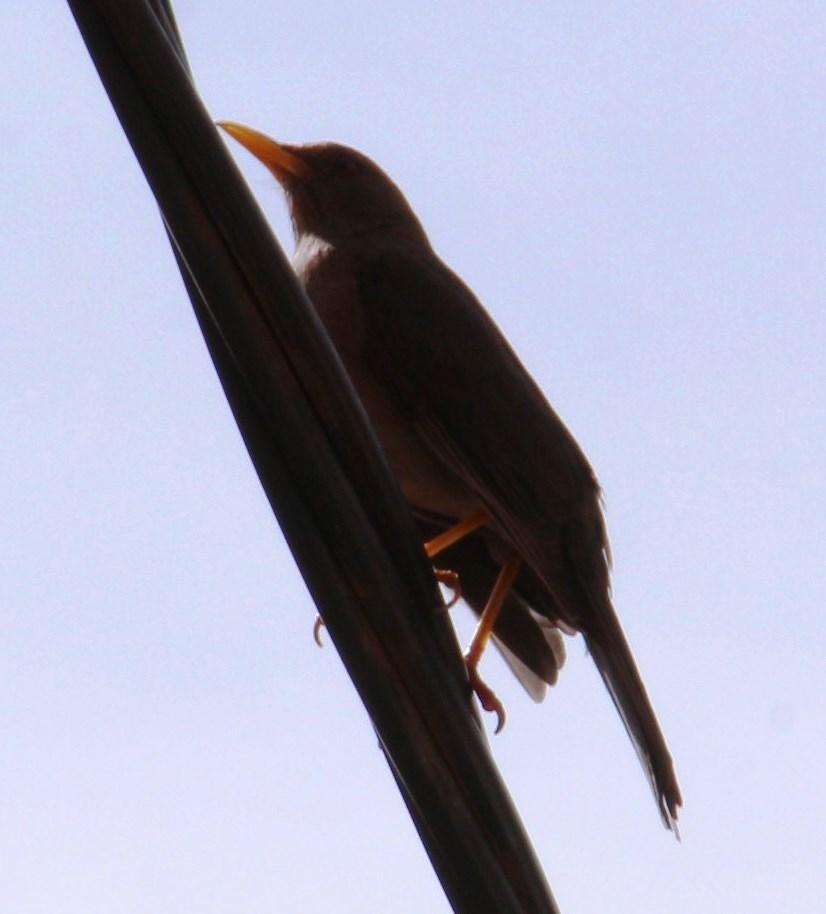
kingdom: Animalia
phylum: Chordata
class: Aves
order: Passeriformes
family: Turdidae
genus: Turdus
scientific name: Turdus chiguanco
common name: Chiguanco thrush
